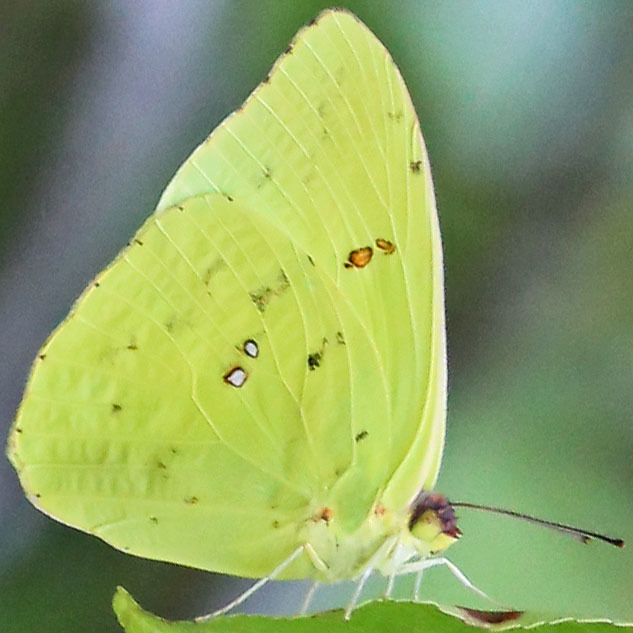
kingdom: Animalia
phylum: Arthropoda
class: Insecta
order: Lepidoptera
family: Pieridae
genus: Phoebis
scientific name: Phoebis sennae
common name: Cloudless sulphur
